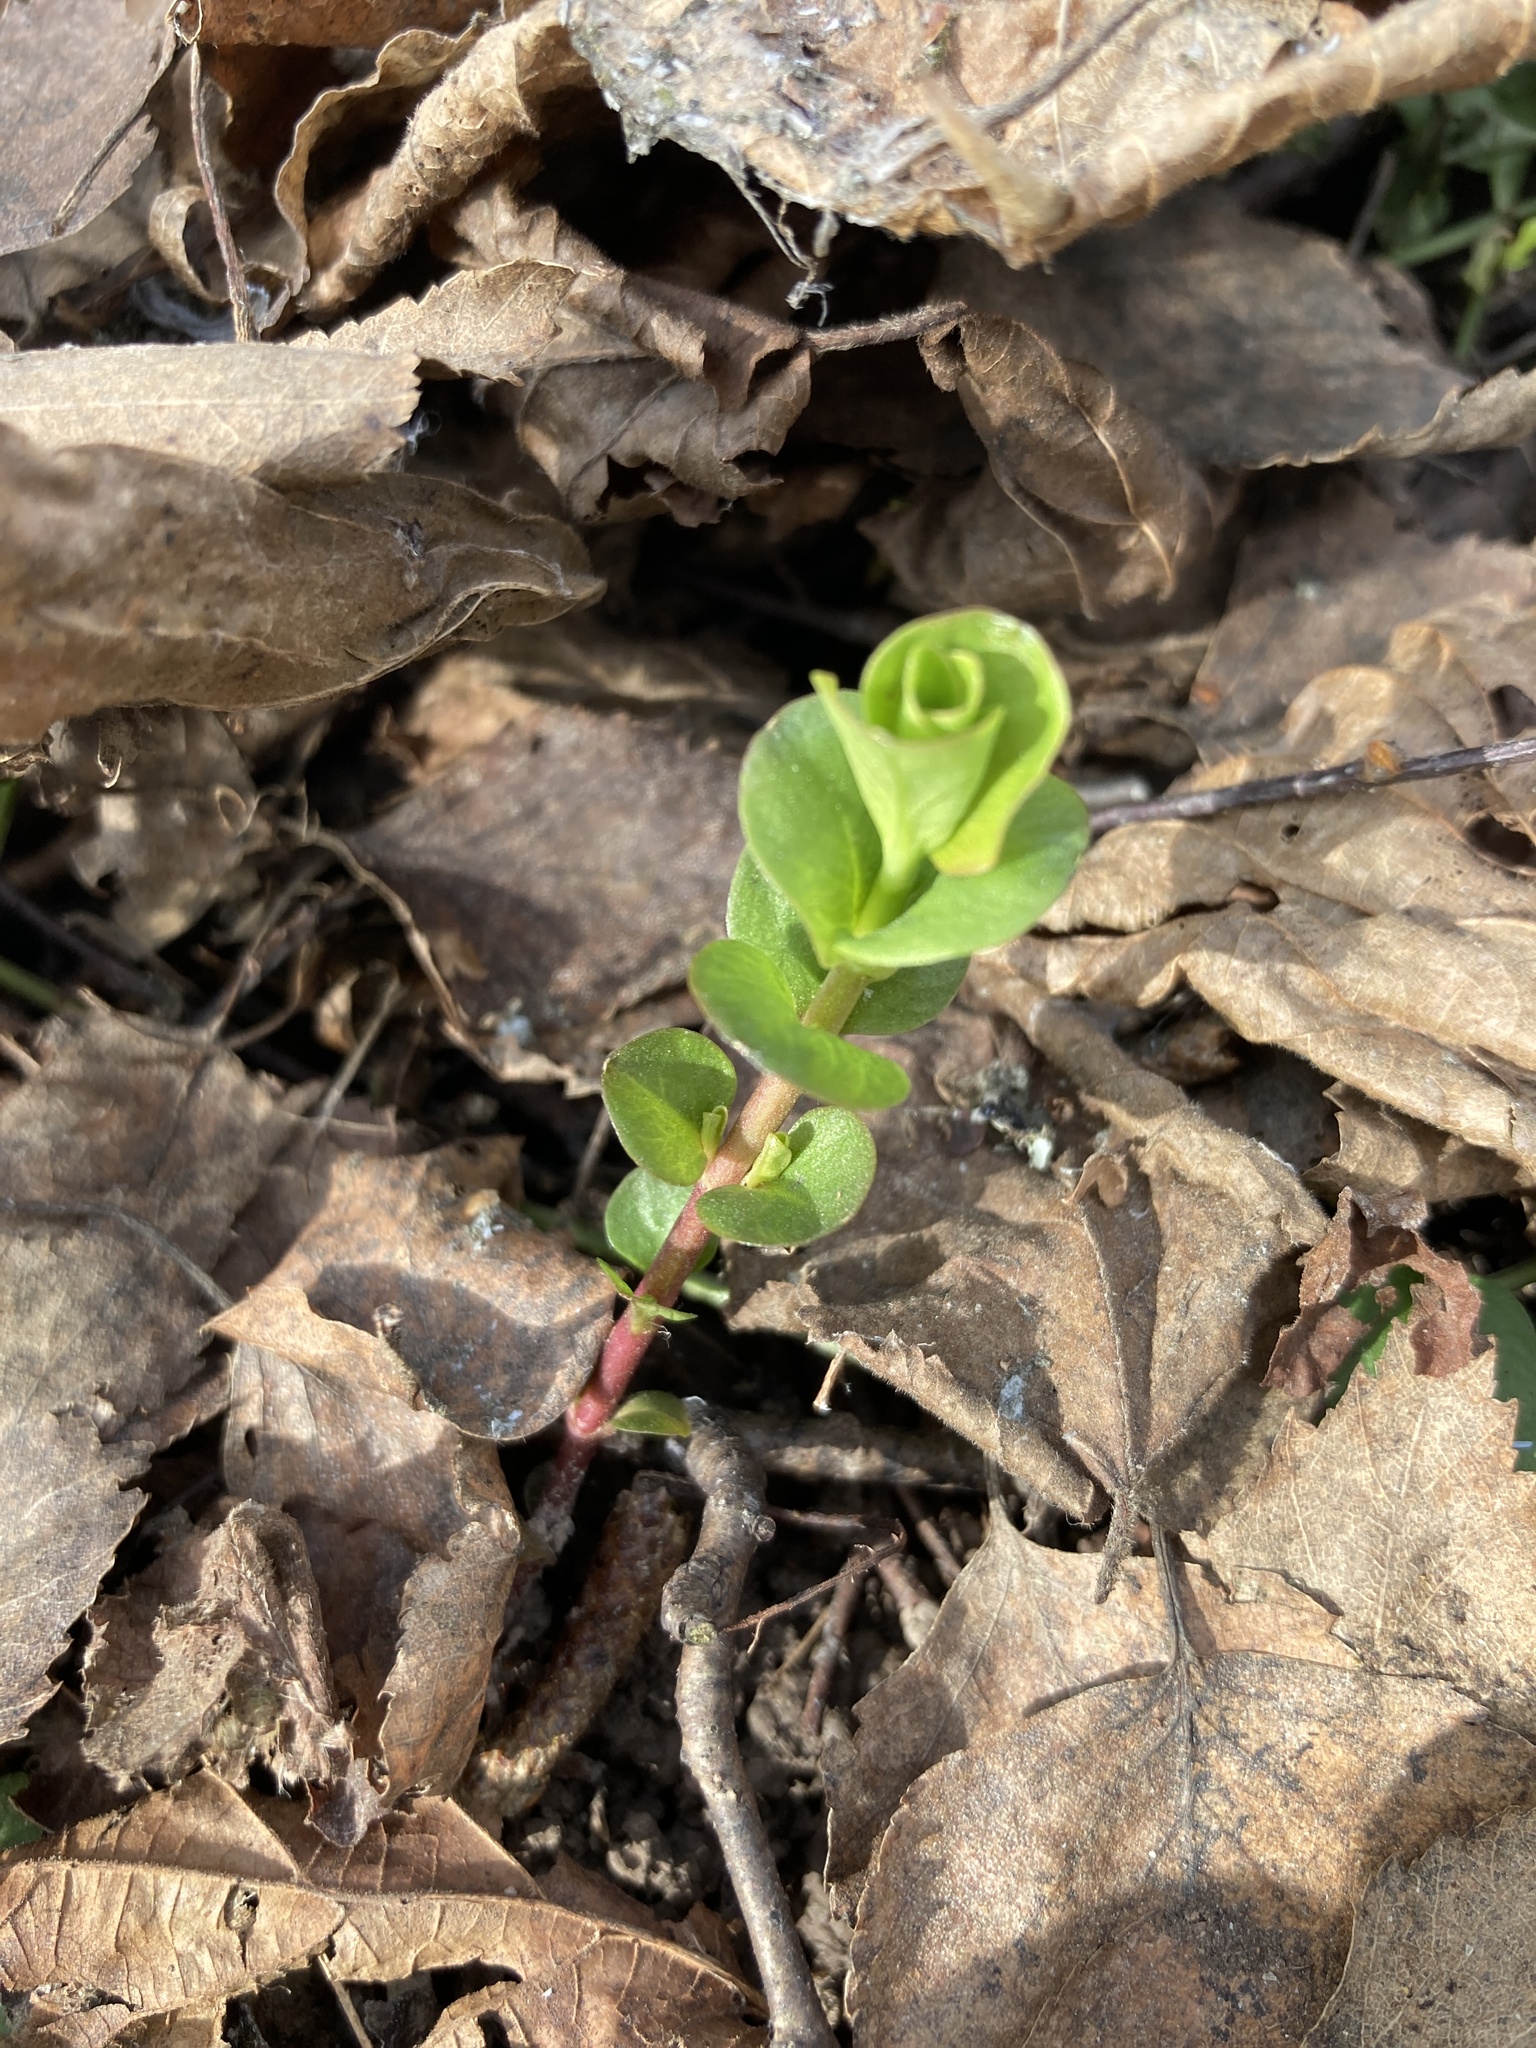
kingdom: Plantae
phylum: Tracheophyta
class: Magnoliopsida
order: Ericales
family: Primulaceae
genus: Lysimachia
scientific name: Lysimachia nummularia
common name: Moneywort
